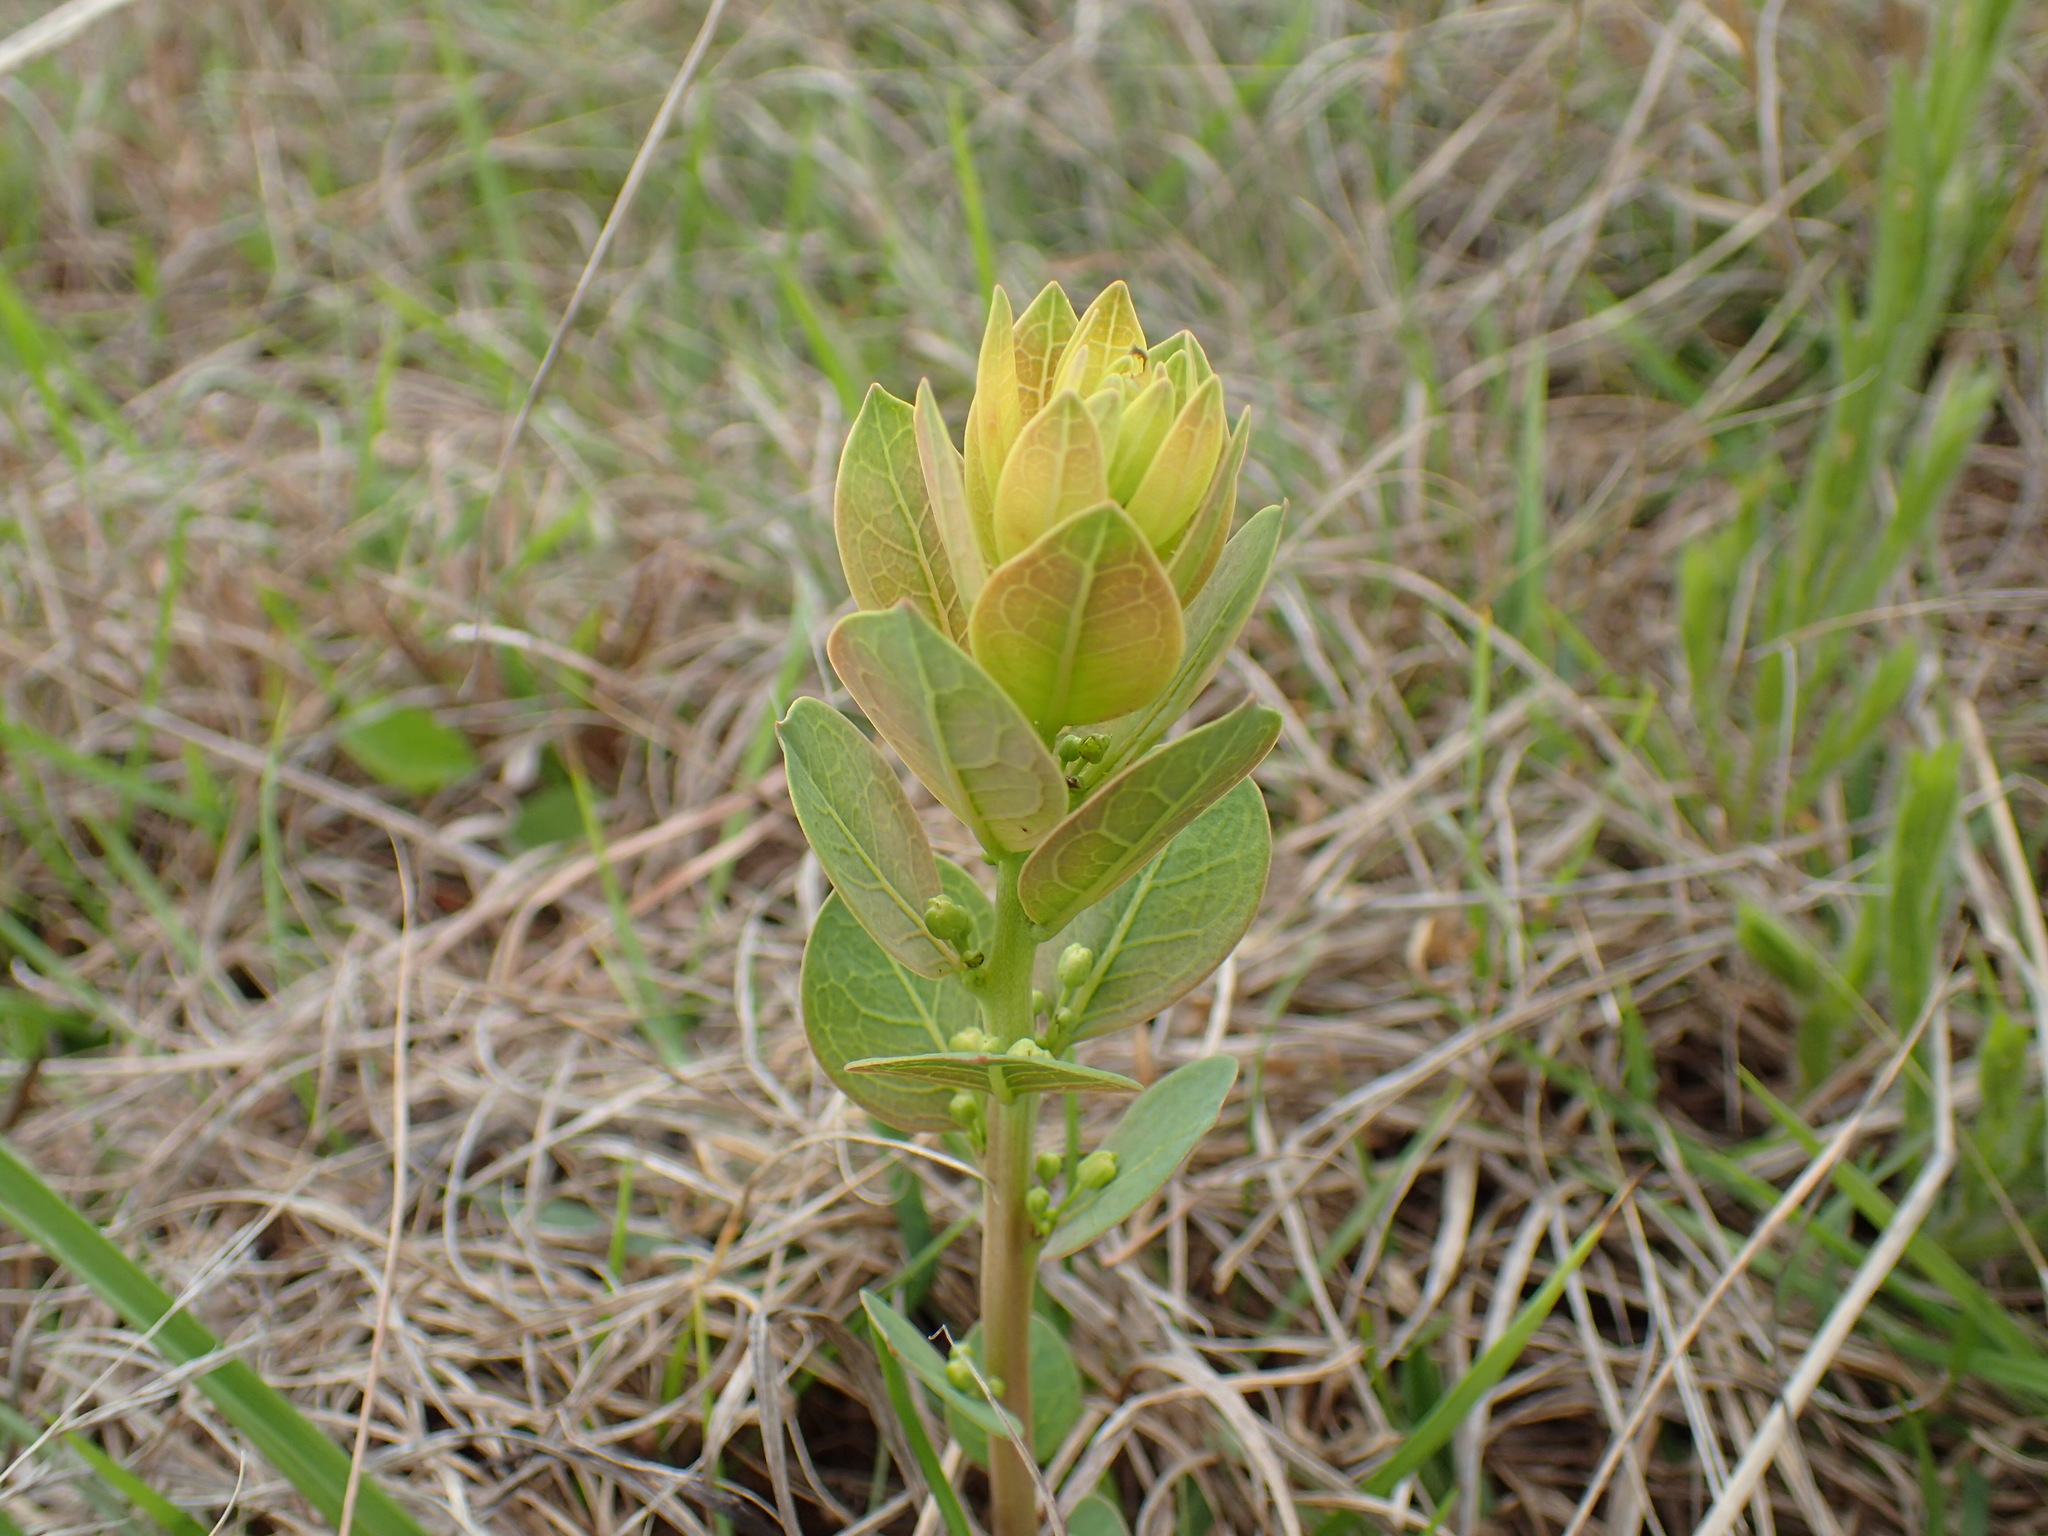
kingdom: Plantae
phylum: Tracheophyta
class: Magnoliopsida
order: Malpighiales
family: Peraceae
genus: Clutia
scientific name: Clutia monticola
